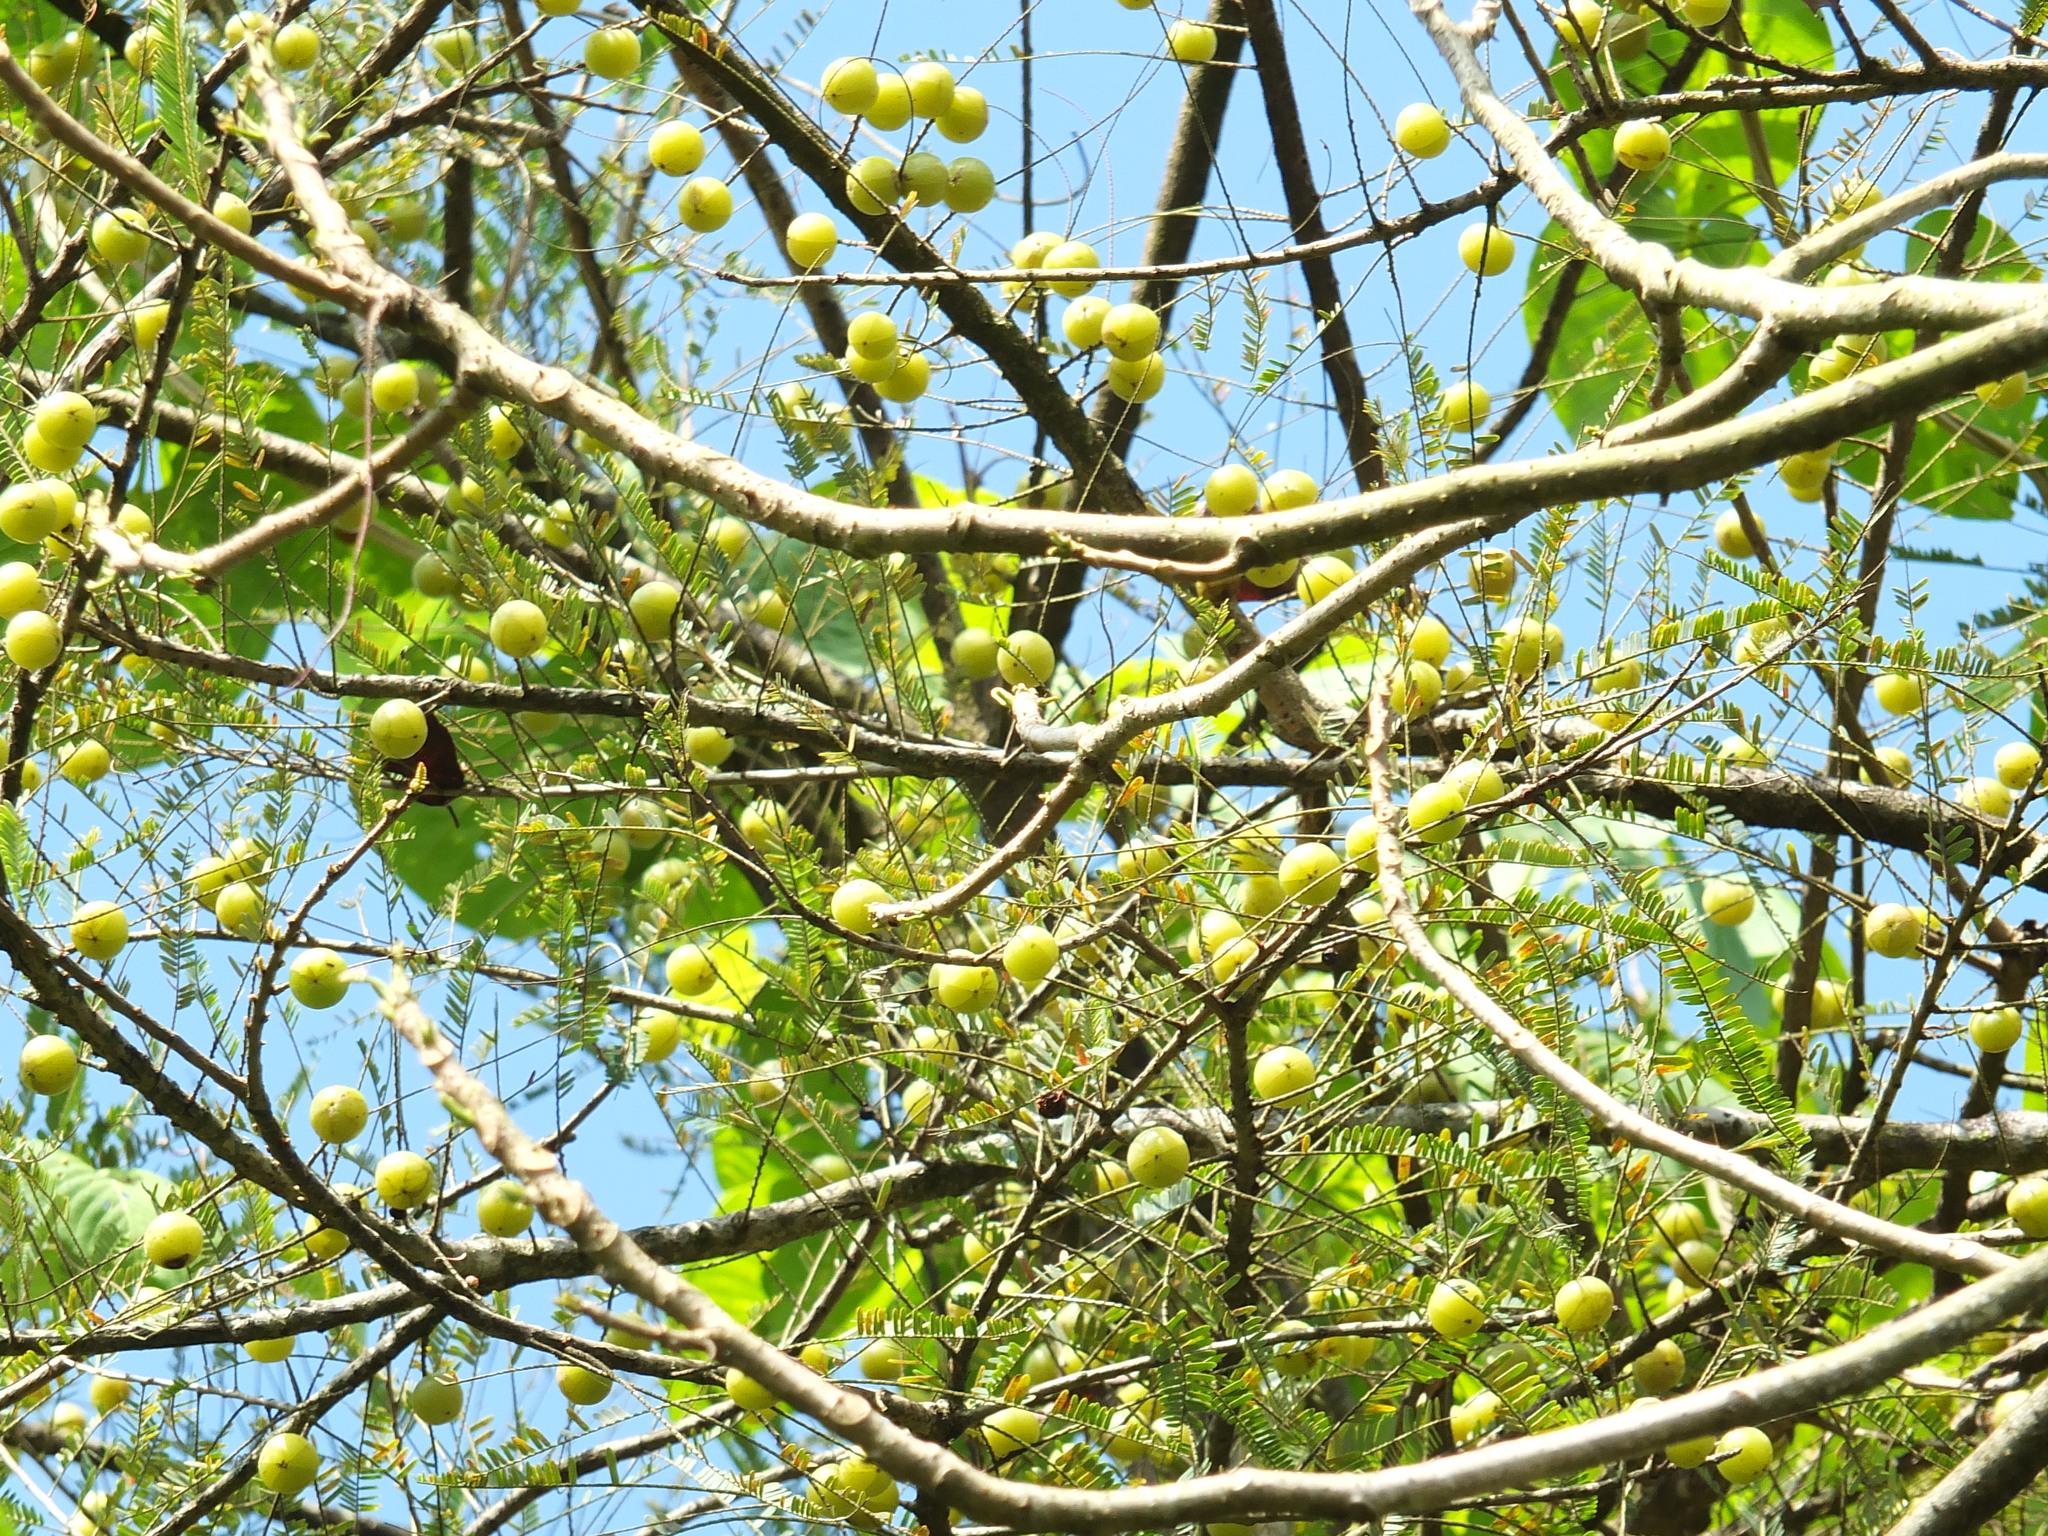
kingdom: Plantae
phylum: Tracheophyta
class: Magnoliopsida
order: Malpighiales
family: Phyllanthaceae
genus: Phyllanthus
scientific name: Phyllanthus emblica
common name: Indian gooseberry
